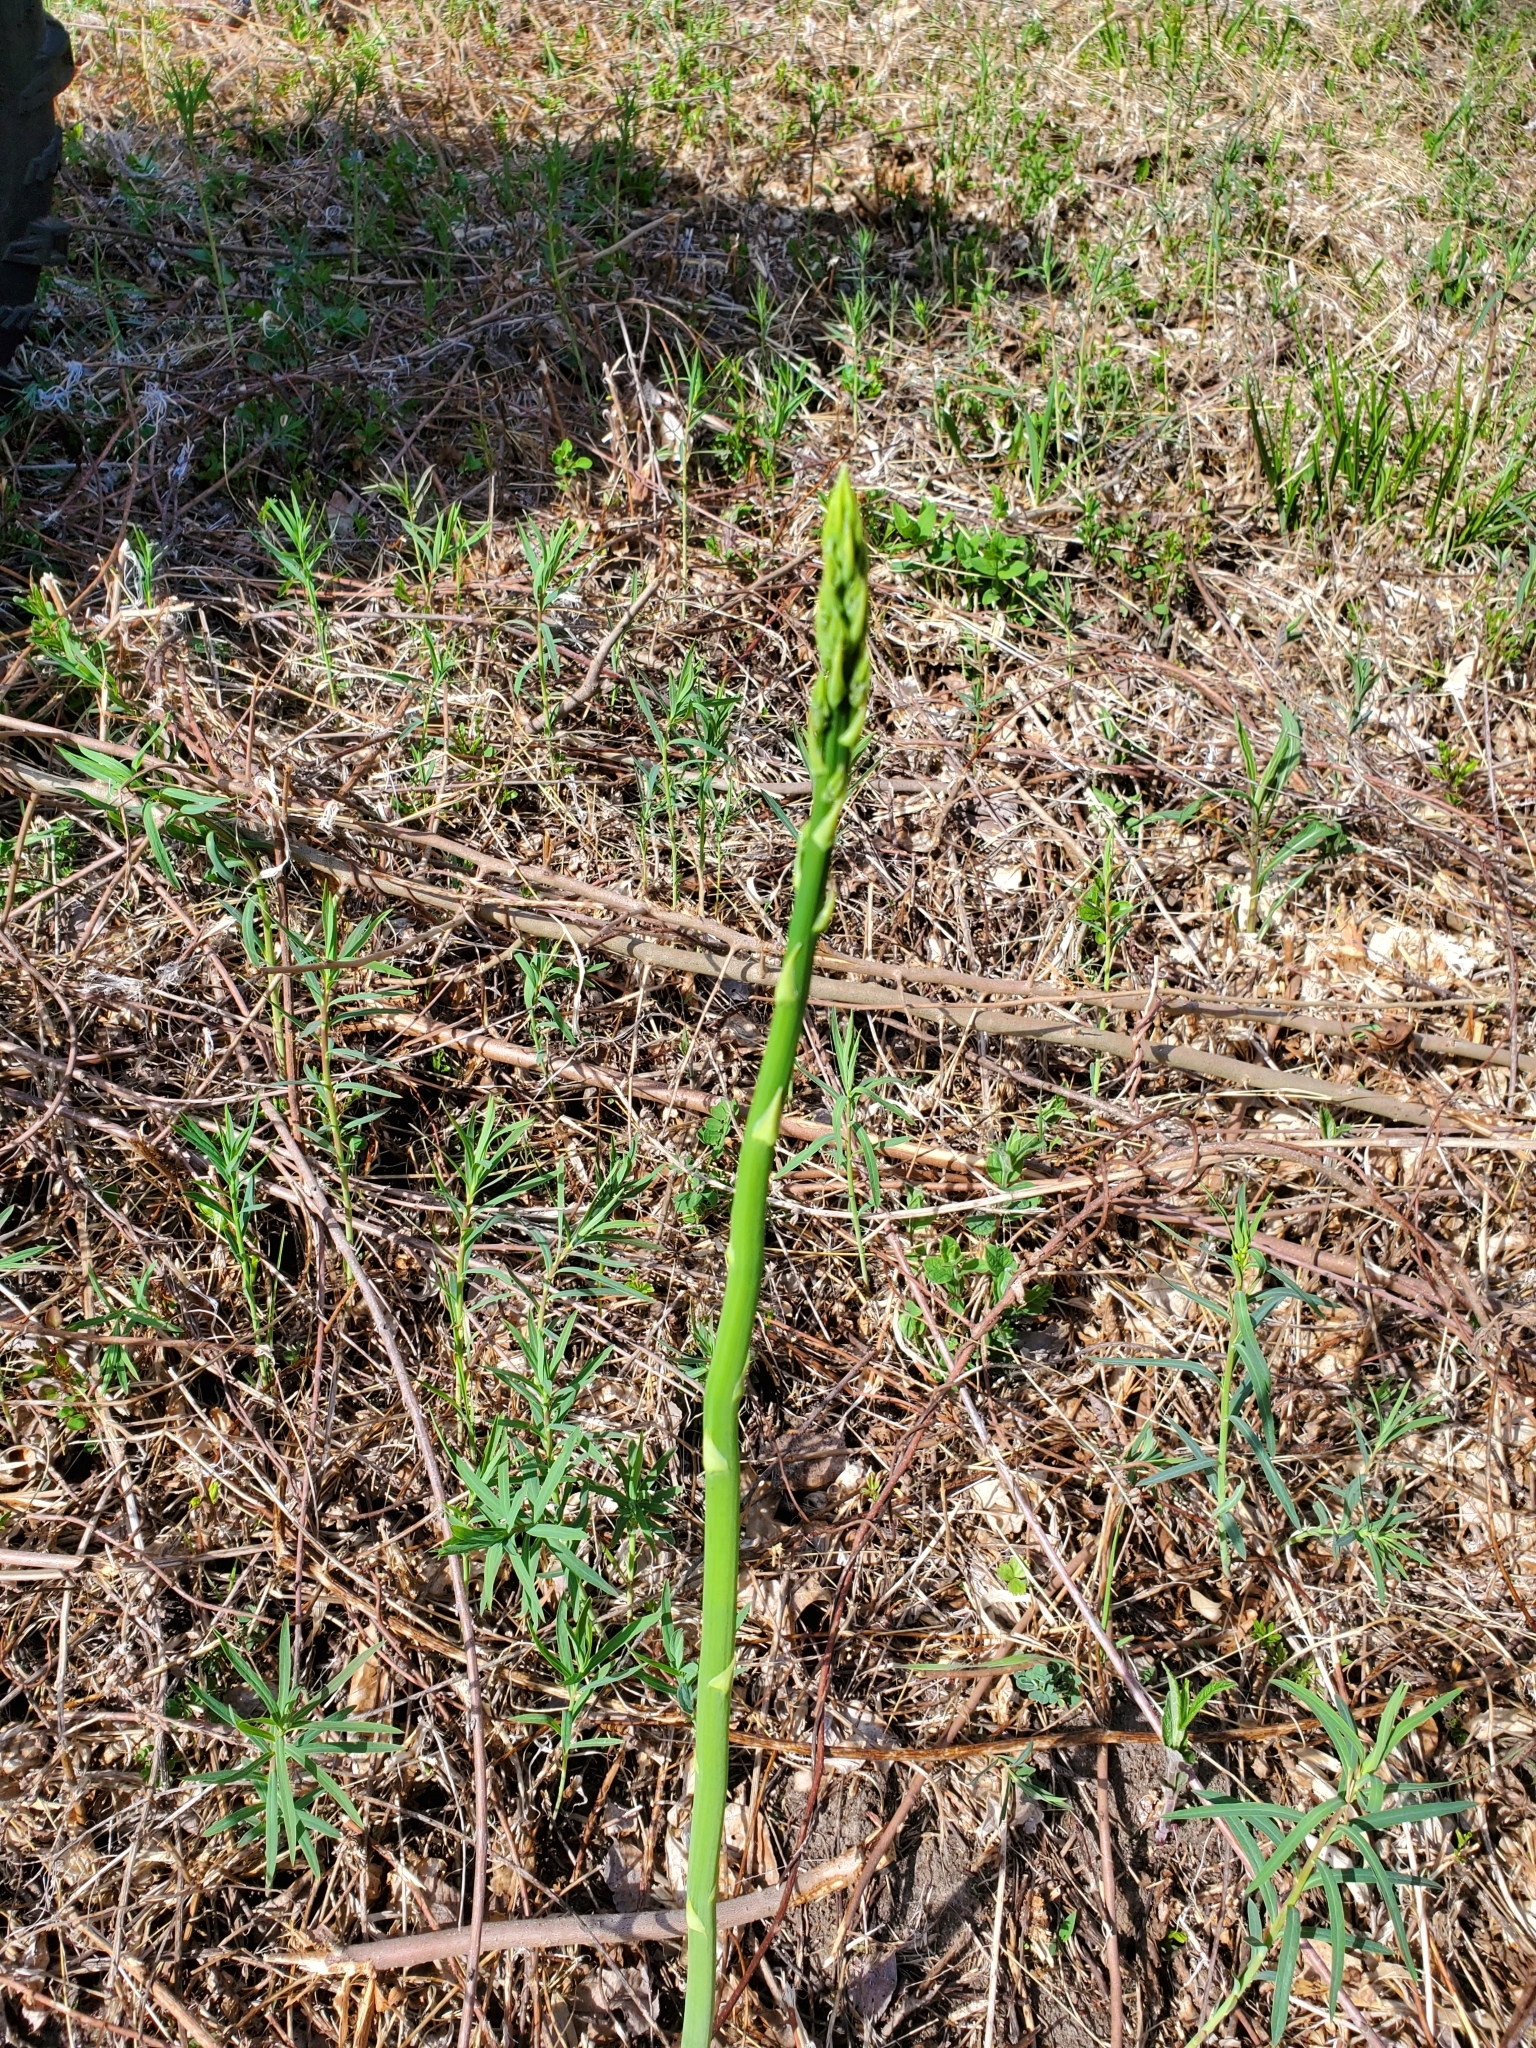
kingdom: Plantae
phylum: Tracheophyta
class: Liliopsida
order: Asparagales
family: Asparagaceae
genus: Asparagus
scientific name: Asparagus officinalis
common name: Garden asparagus
